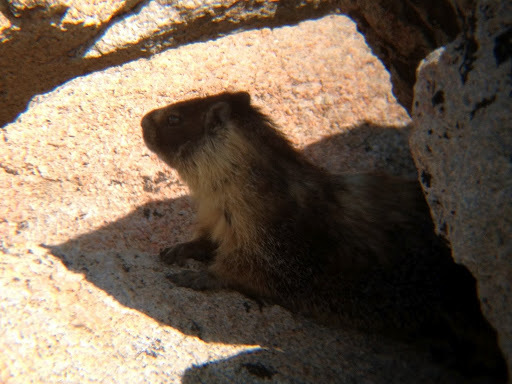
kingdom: Animalia
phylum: Chordata
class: Mammalia
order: Rodentia
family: Sciuridae
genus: Marmota
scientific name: Marmota flaviventris
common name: Yellow-bellied marmot
